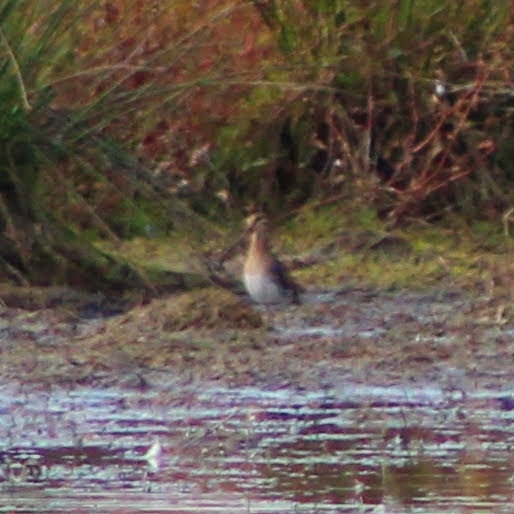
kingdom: Animalia
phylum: Chordata
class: Aves
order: Charadriiformes
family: Scolopacidae
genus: Gallinago
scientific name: Gallinago gallinago
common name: Common snipe
